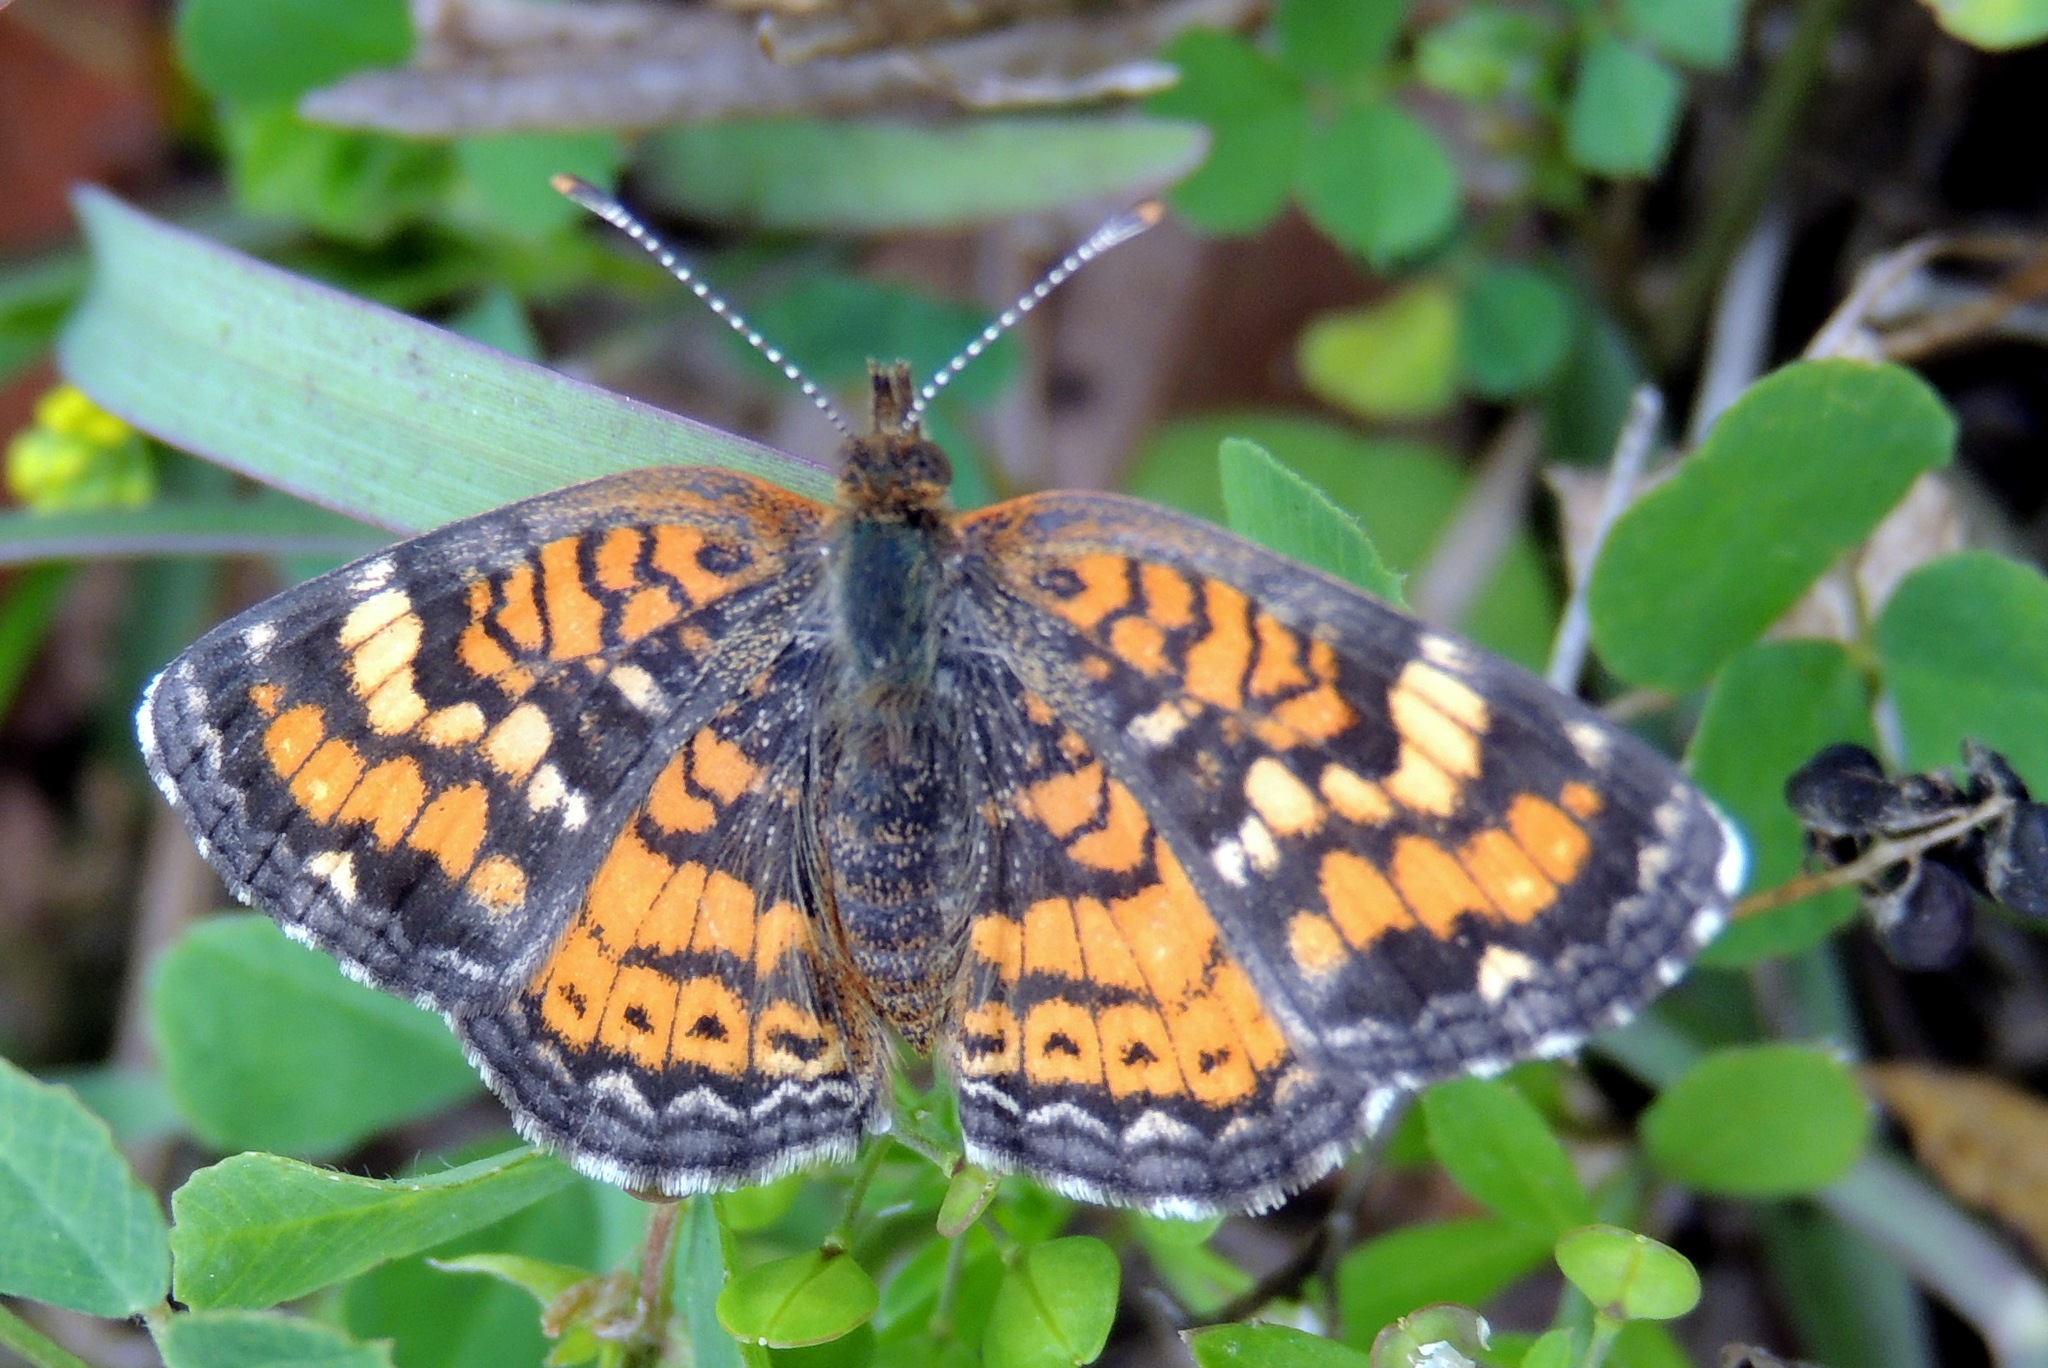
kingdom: Animalia
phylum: Arthropoda
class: Insecta
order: Lepidoptera
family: Nymphalidae
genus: Phyciodes
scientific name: Phyciodes phaon
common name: Phaon crescent
